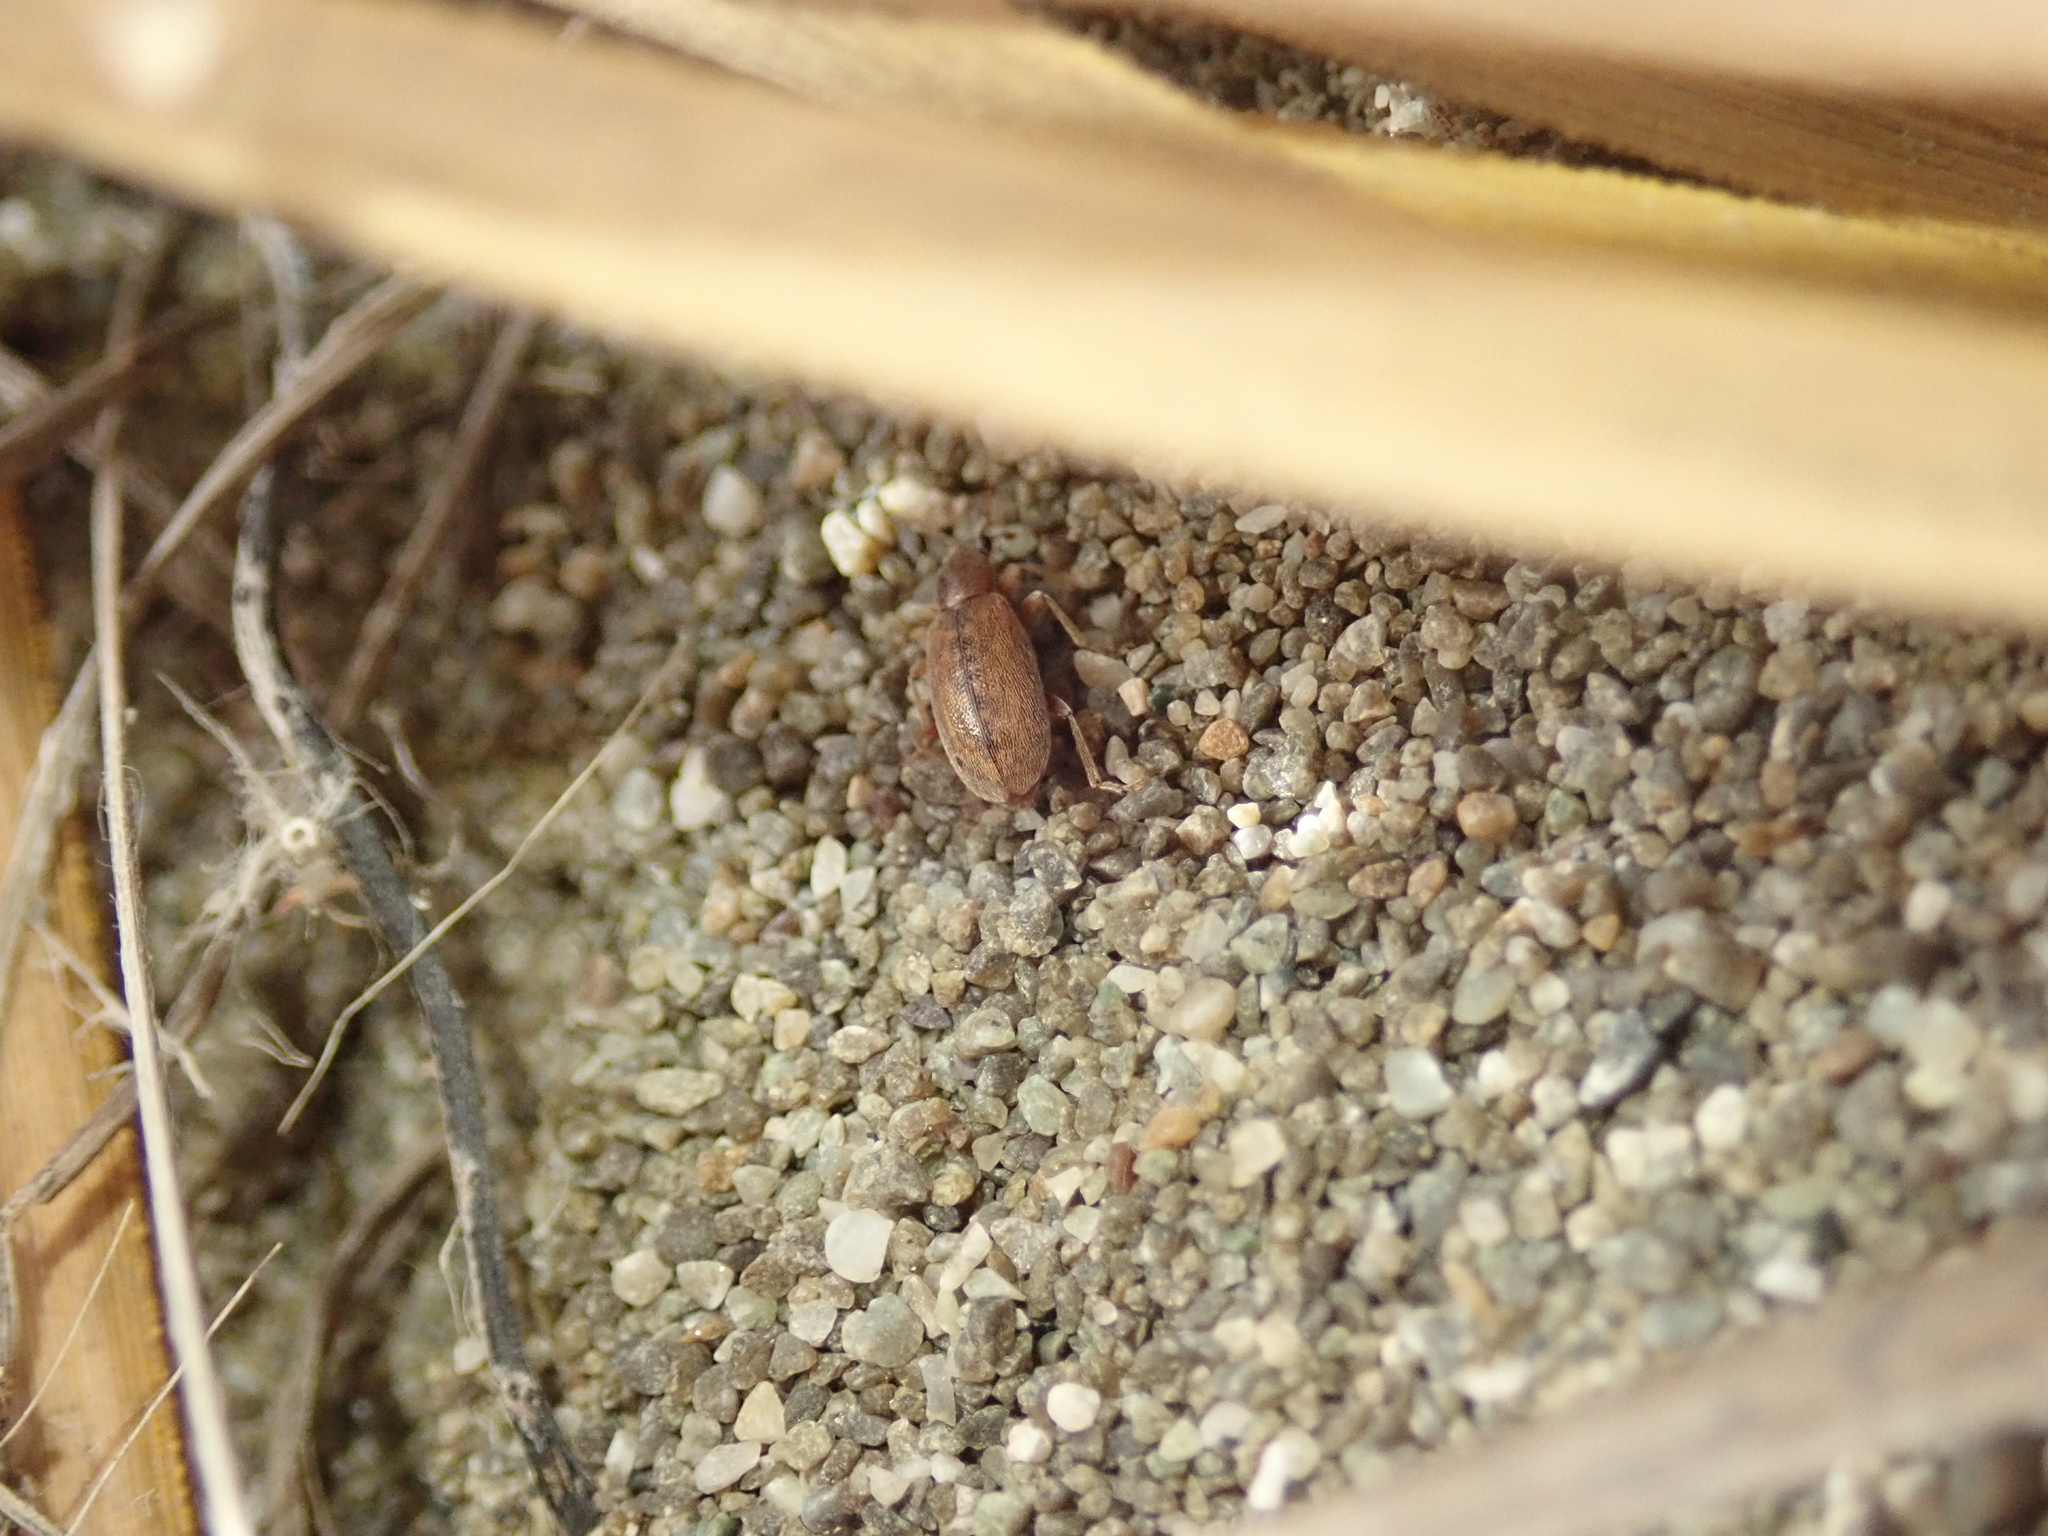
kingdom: Animalia
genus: Lagrioda
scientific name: Lagrioda brounii
